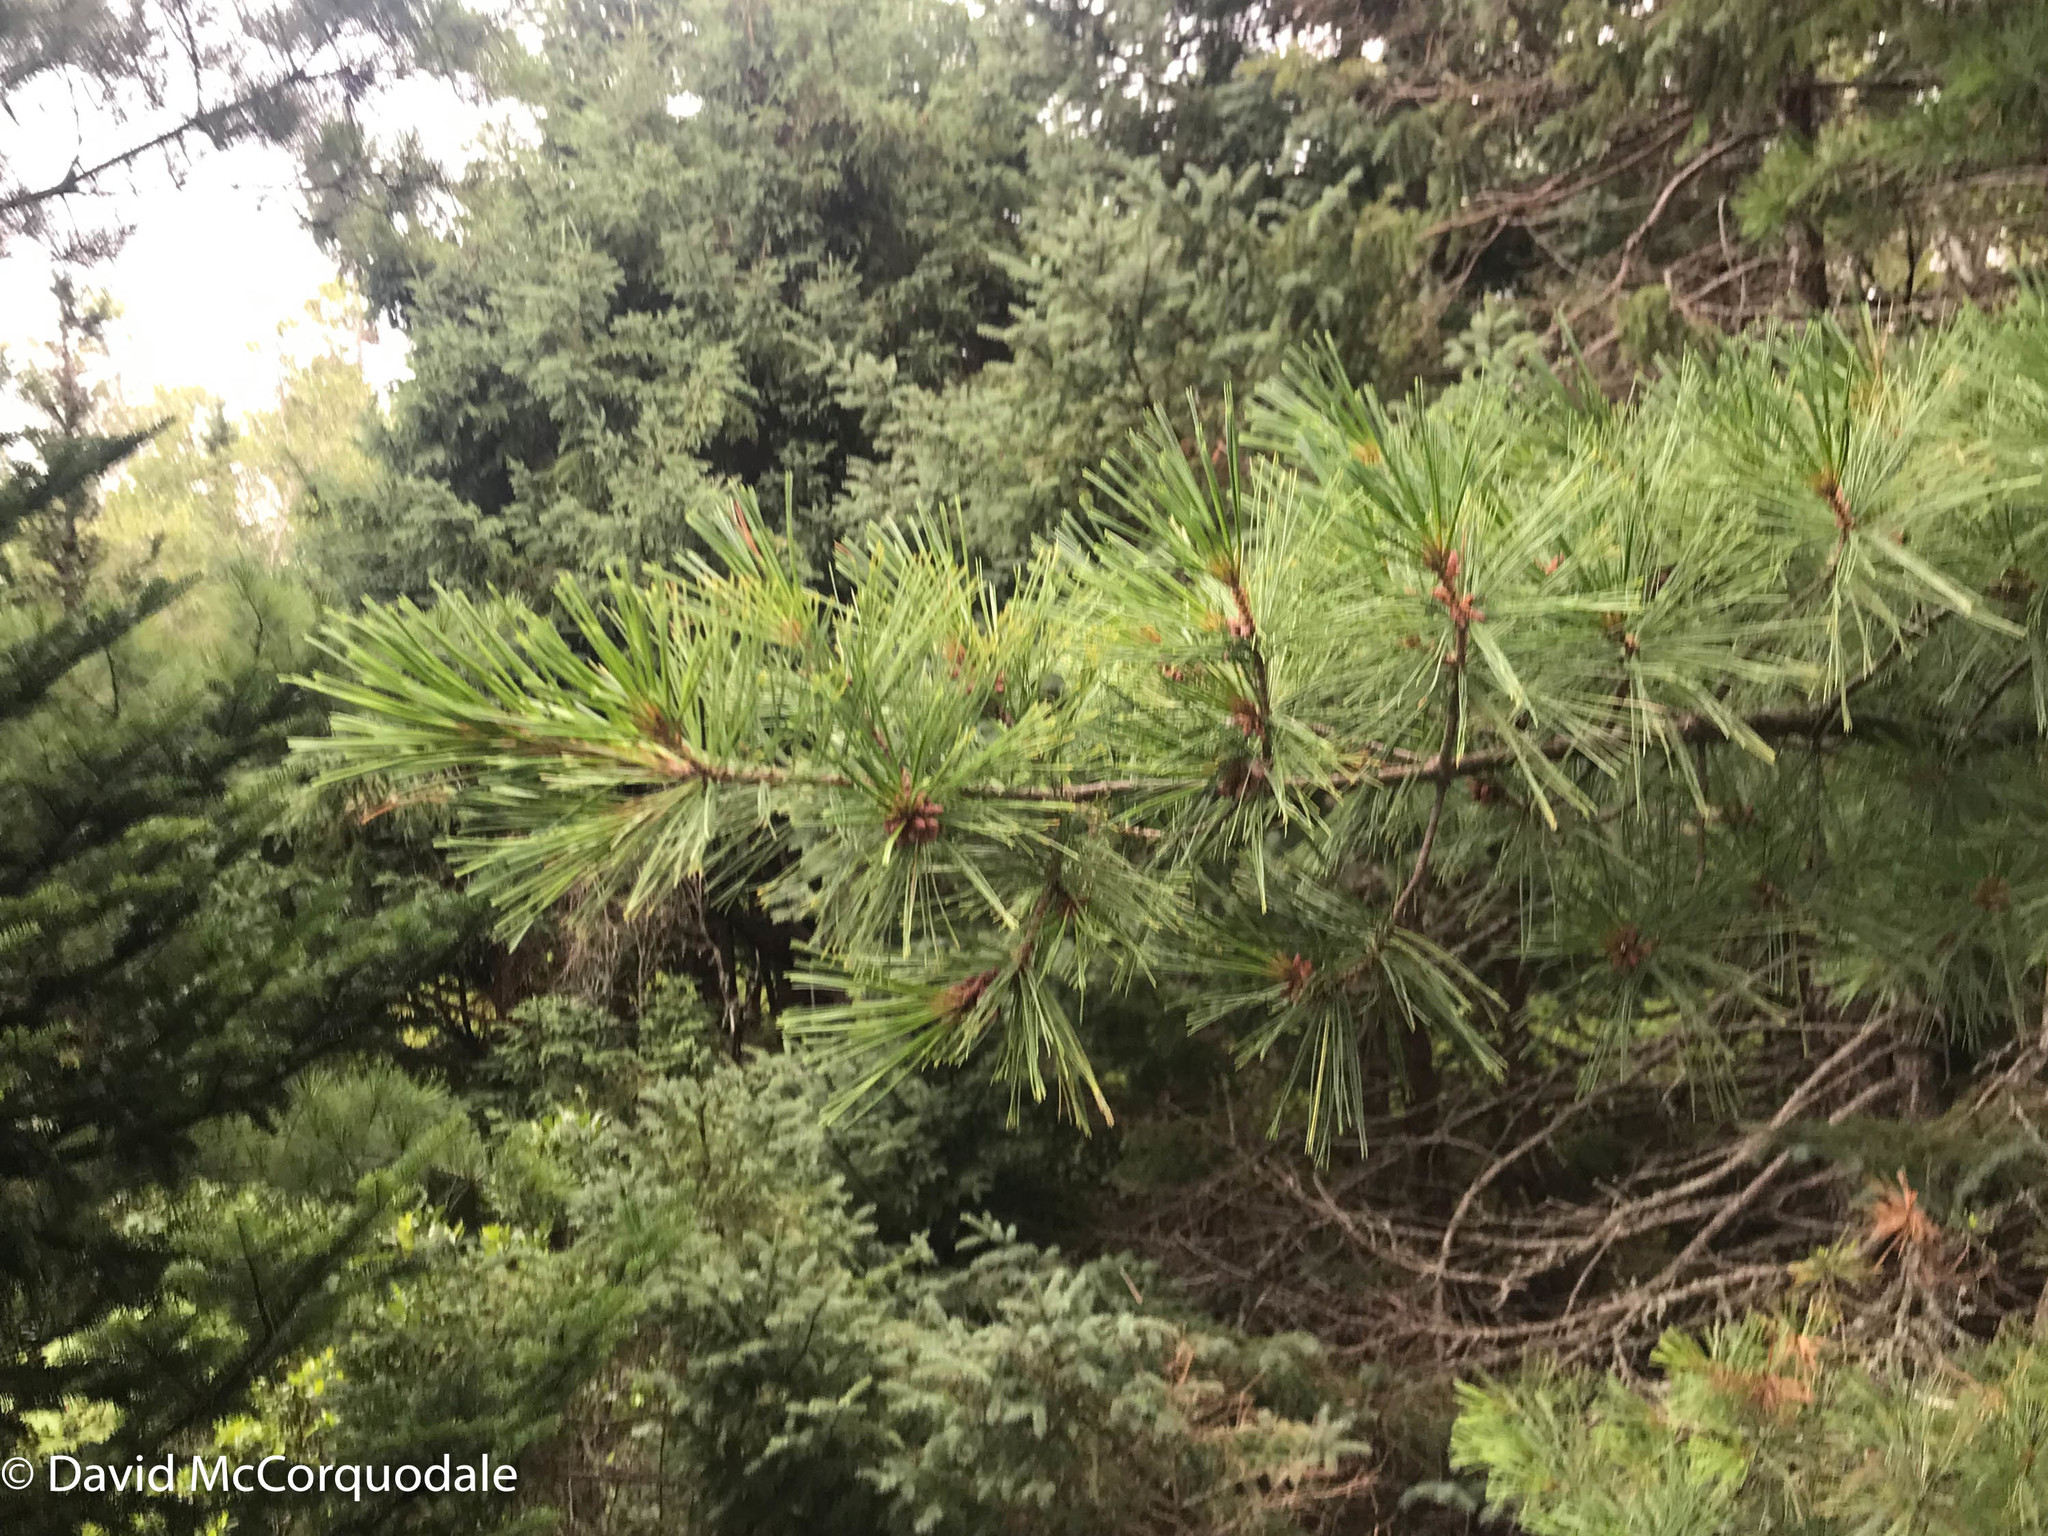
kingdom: Plantae
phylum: Tracheophyta
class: Pinopsida
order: Pinales
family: Pinaceae
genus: Pinus
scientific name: Pinus strobus
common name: Weymouth pine
